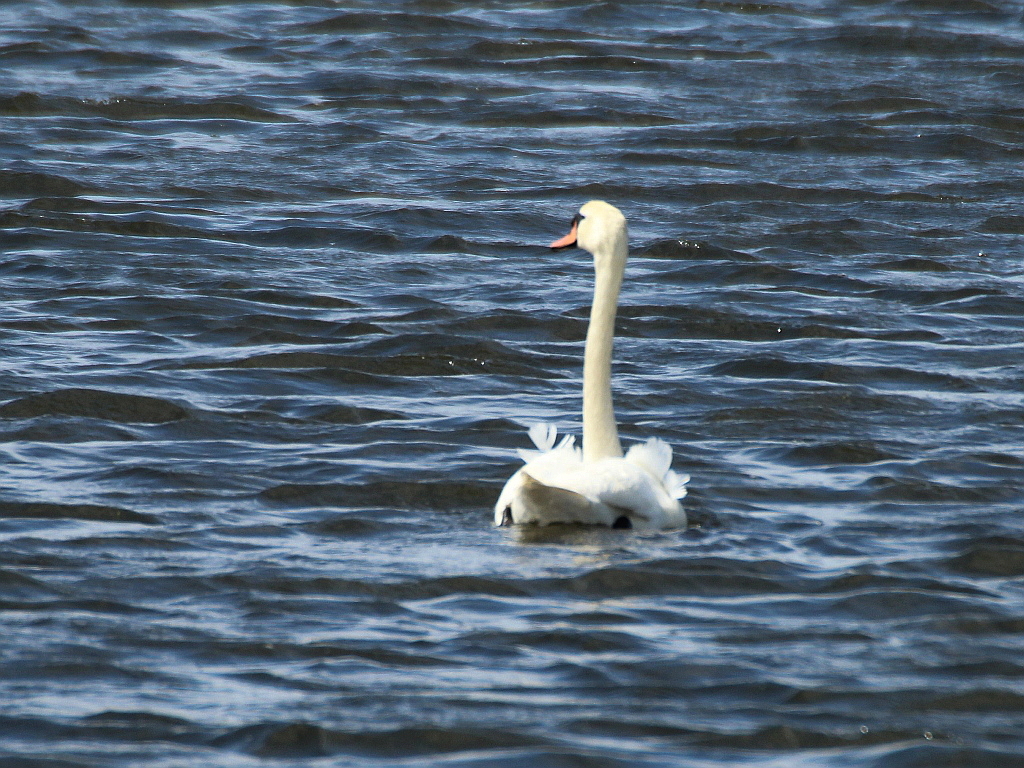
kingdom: Animalia
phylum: Chordata
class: Aves
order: Anseriformes
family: Anatidae
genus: Cygnus
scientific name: Cygnus olor
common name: Mute swan
